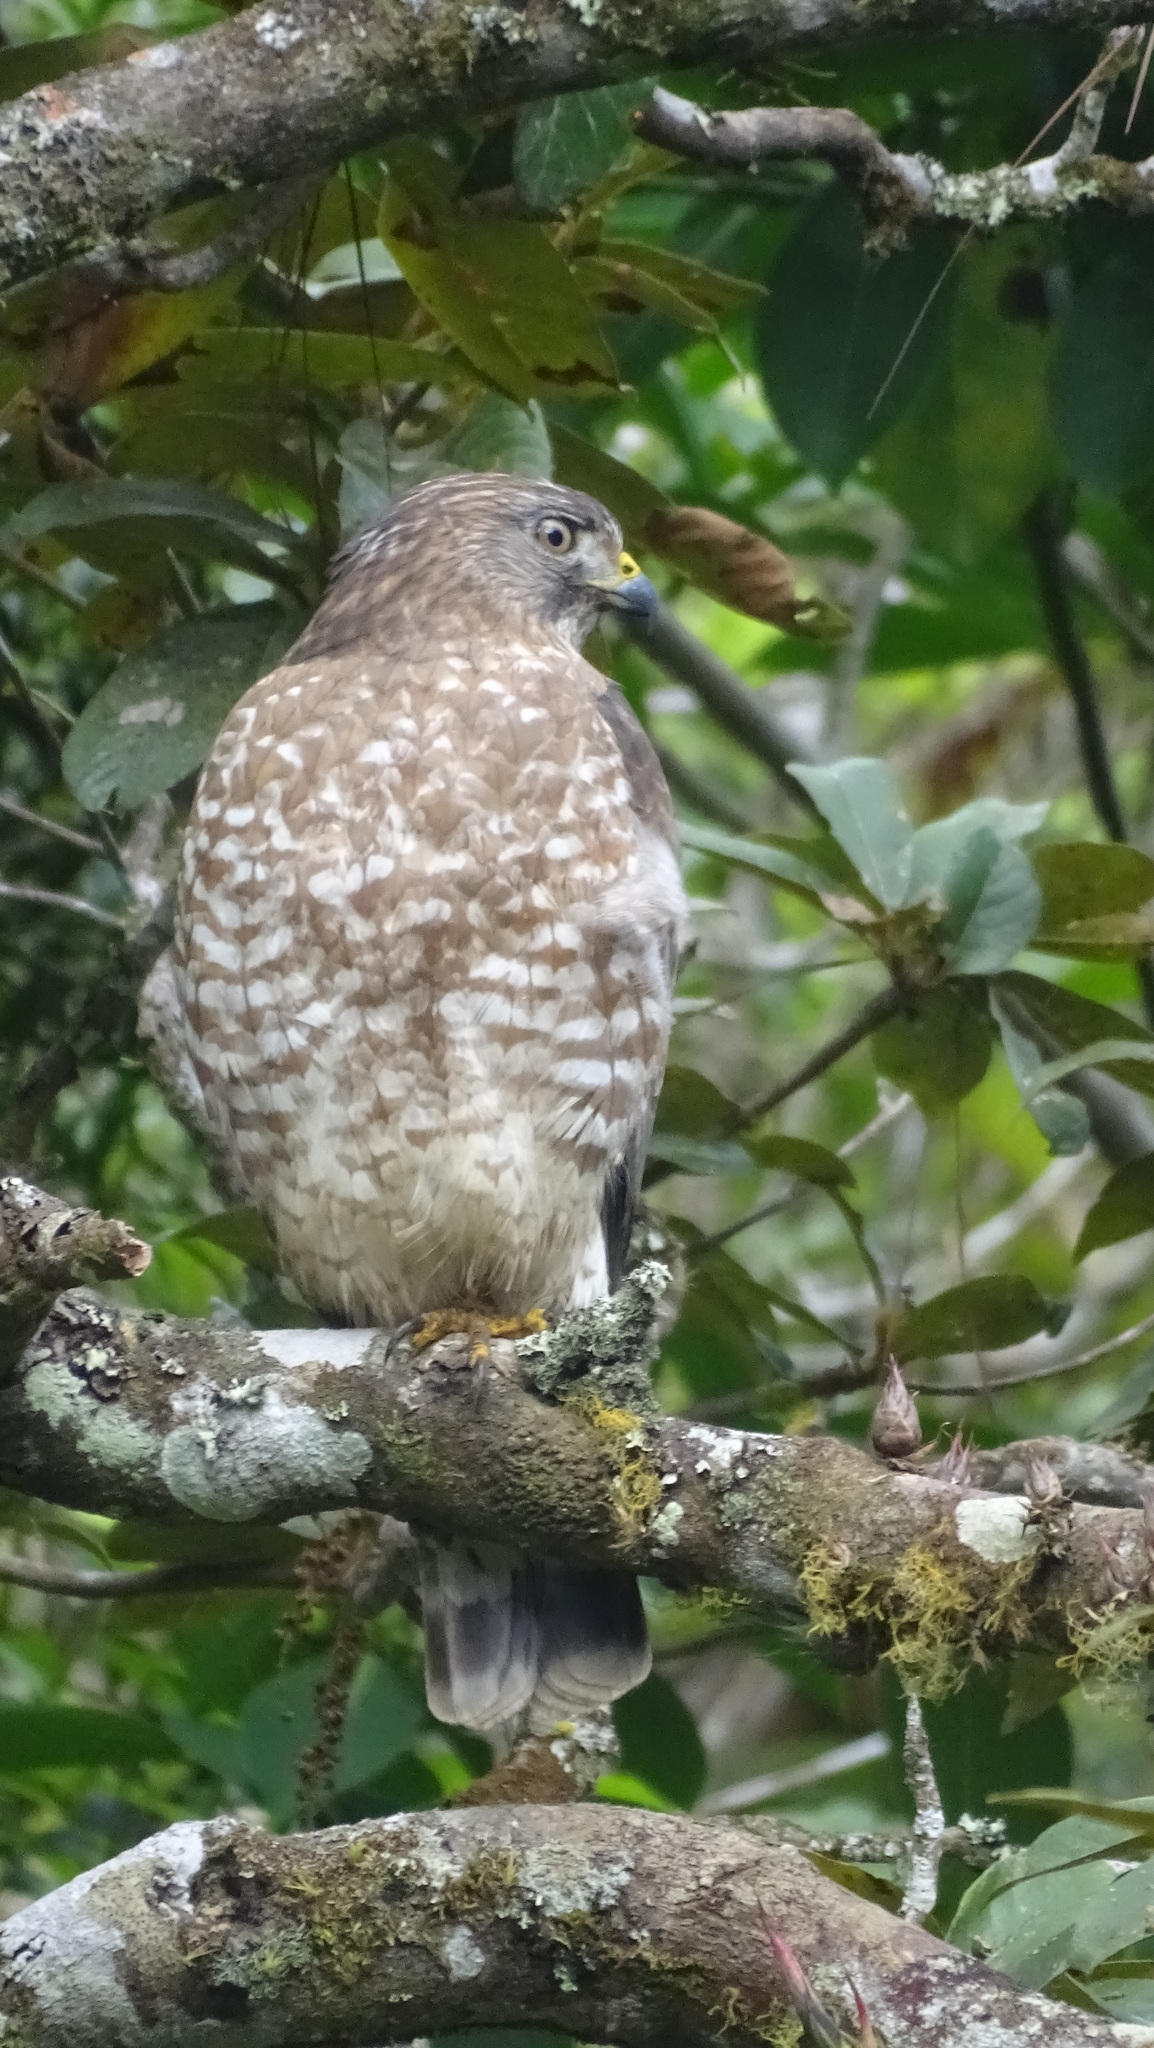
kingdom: Animalia
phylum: Chordata
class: Aves
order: Accipitriformes
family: Accipitridae
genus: Buteo
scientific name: Buteo platypterus
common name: Broad-winged hawk
